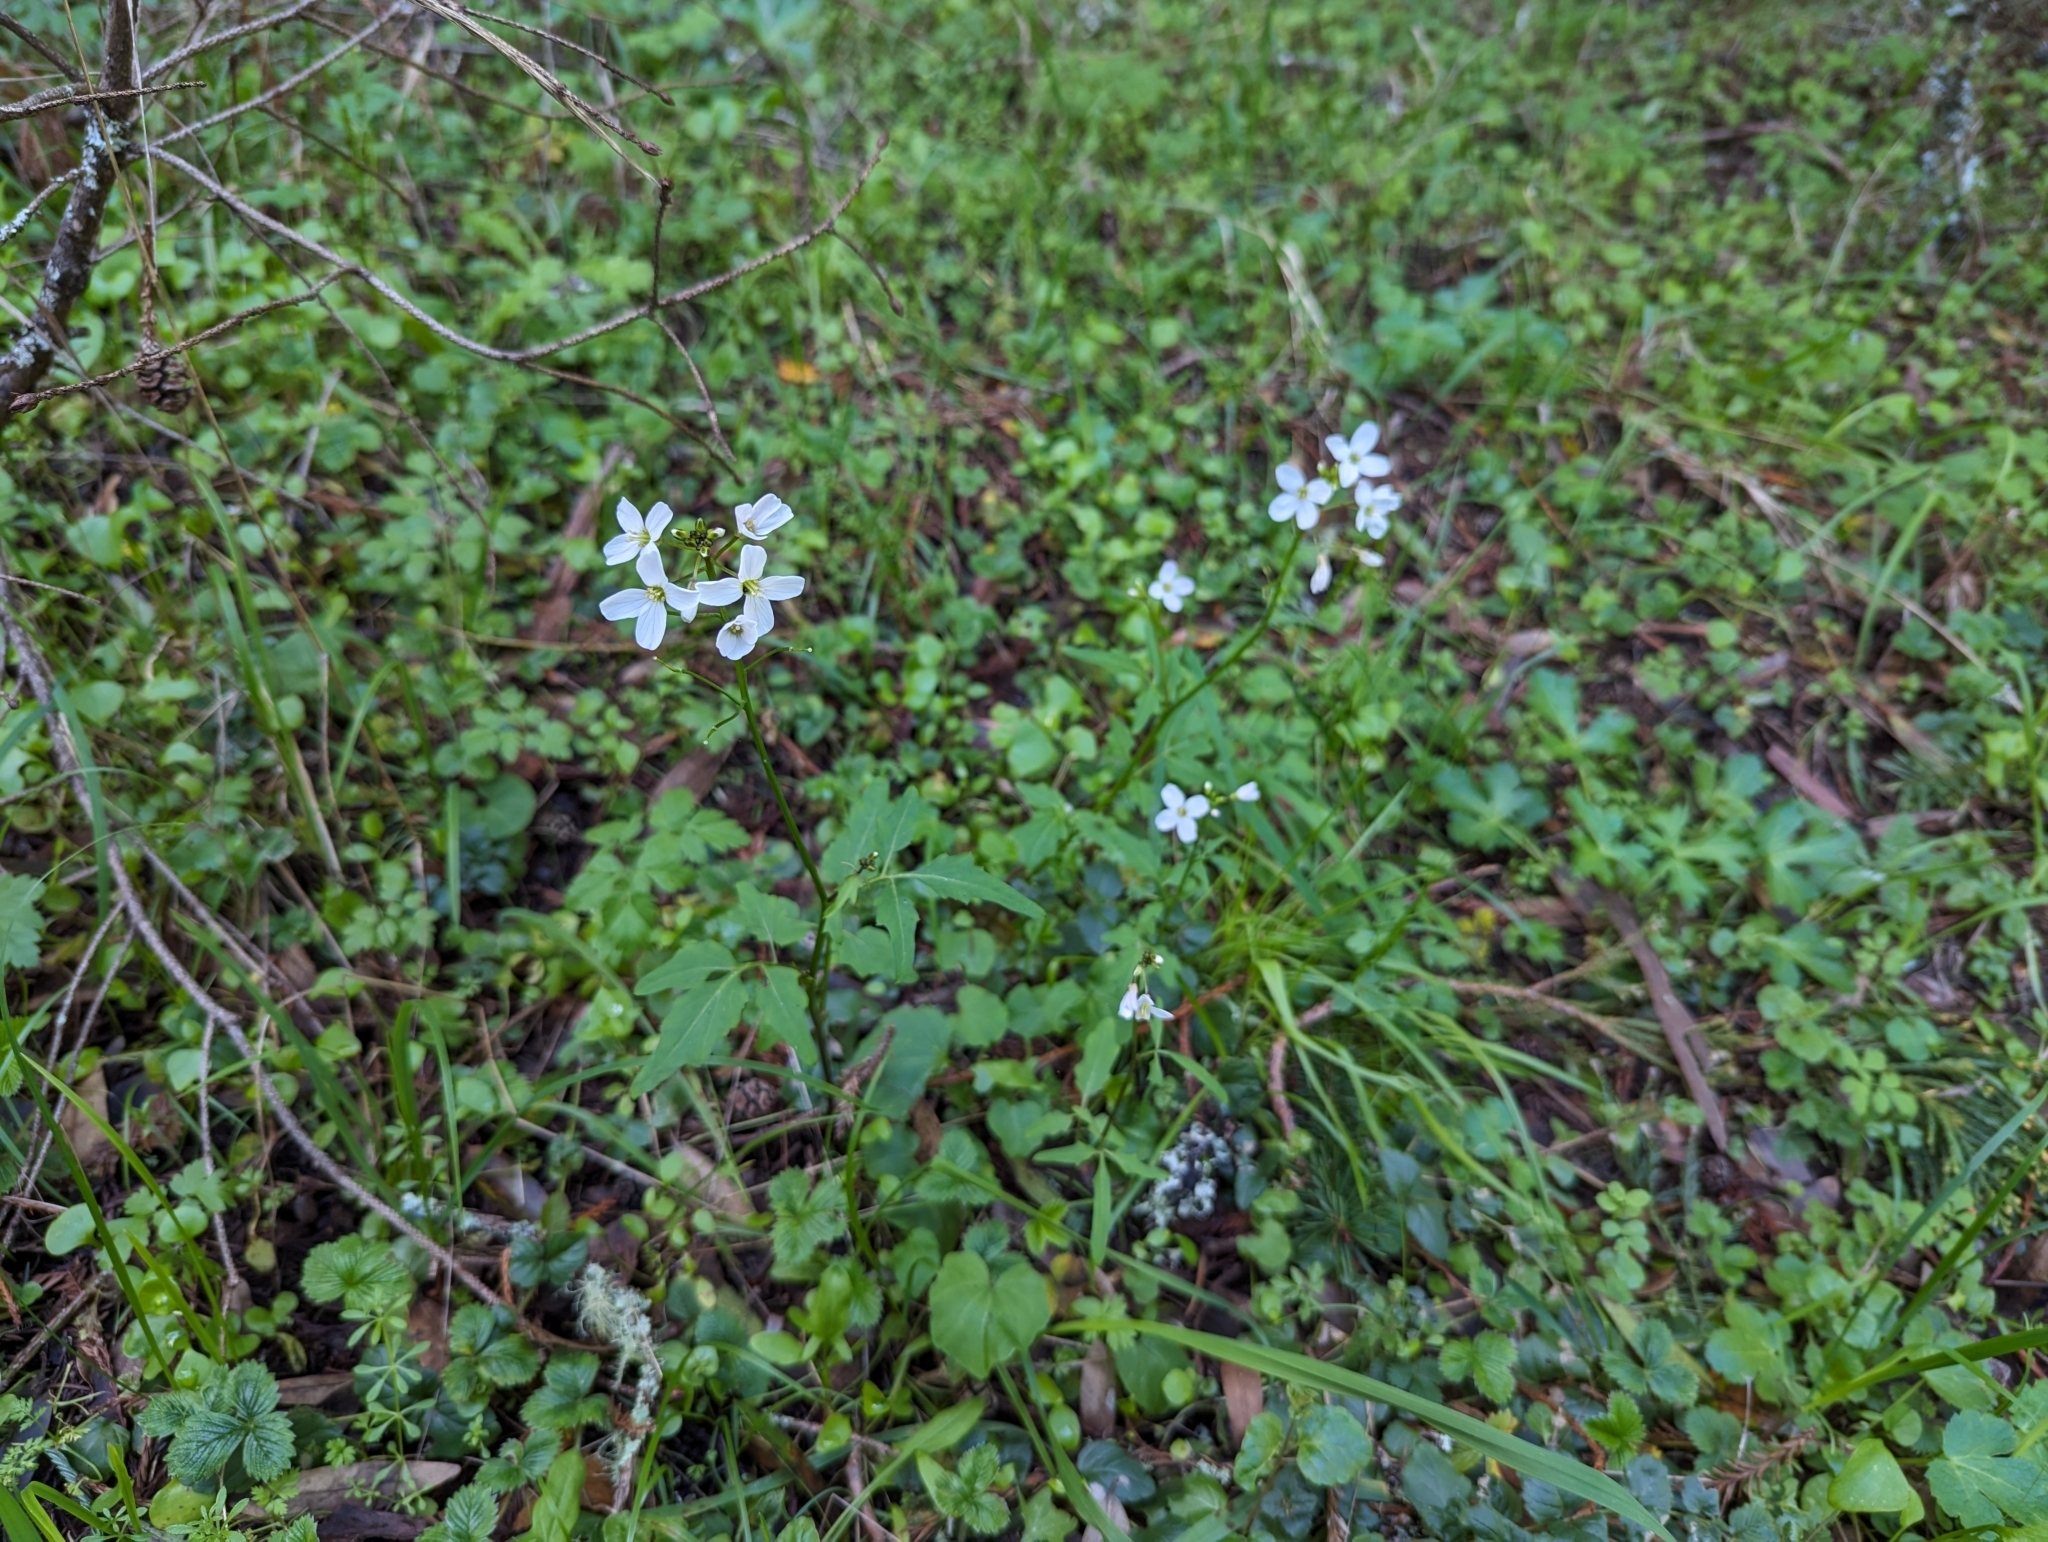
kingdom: Plantae
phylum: Tracheophyta
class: Magnoliopsida
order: Brassicales
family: Brassicaceae
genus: Cardamine
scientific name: Cardamine californica
